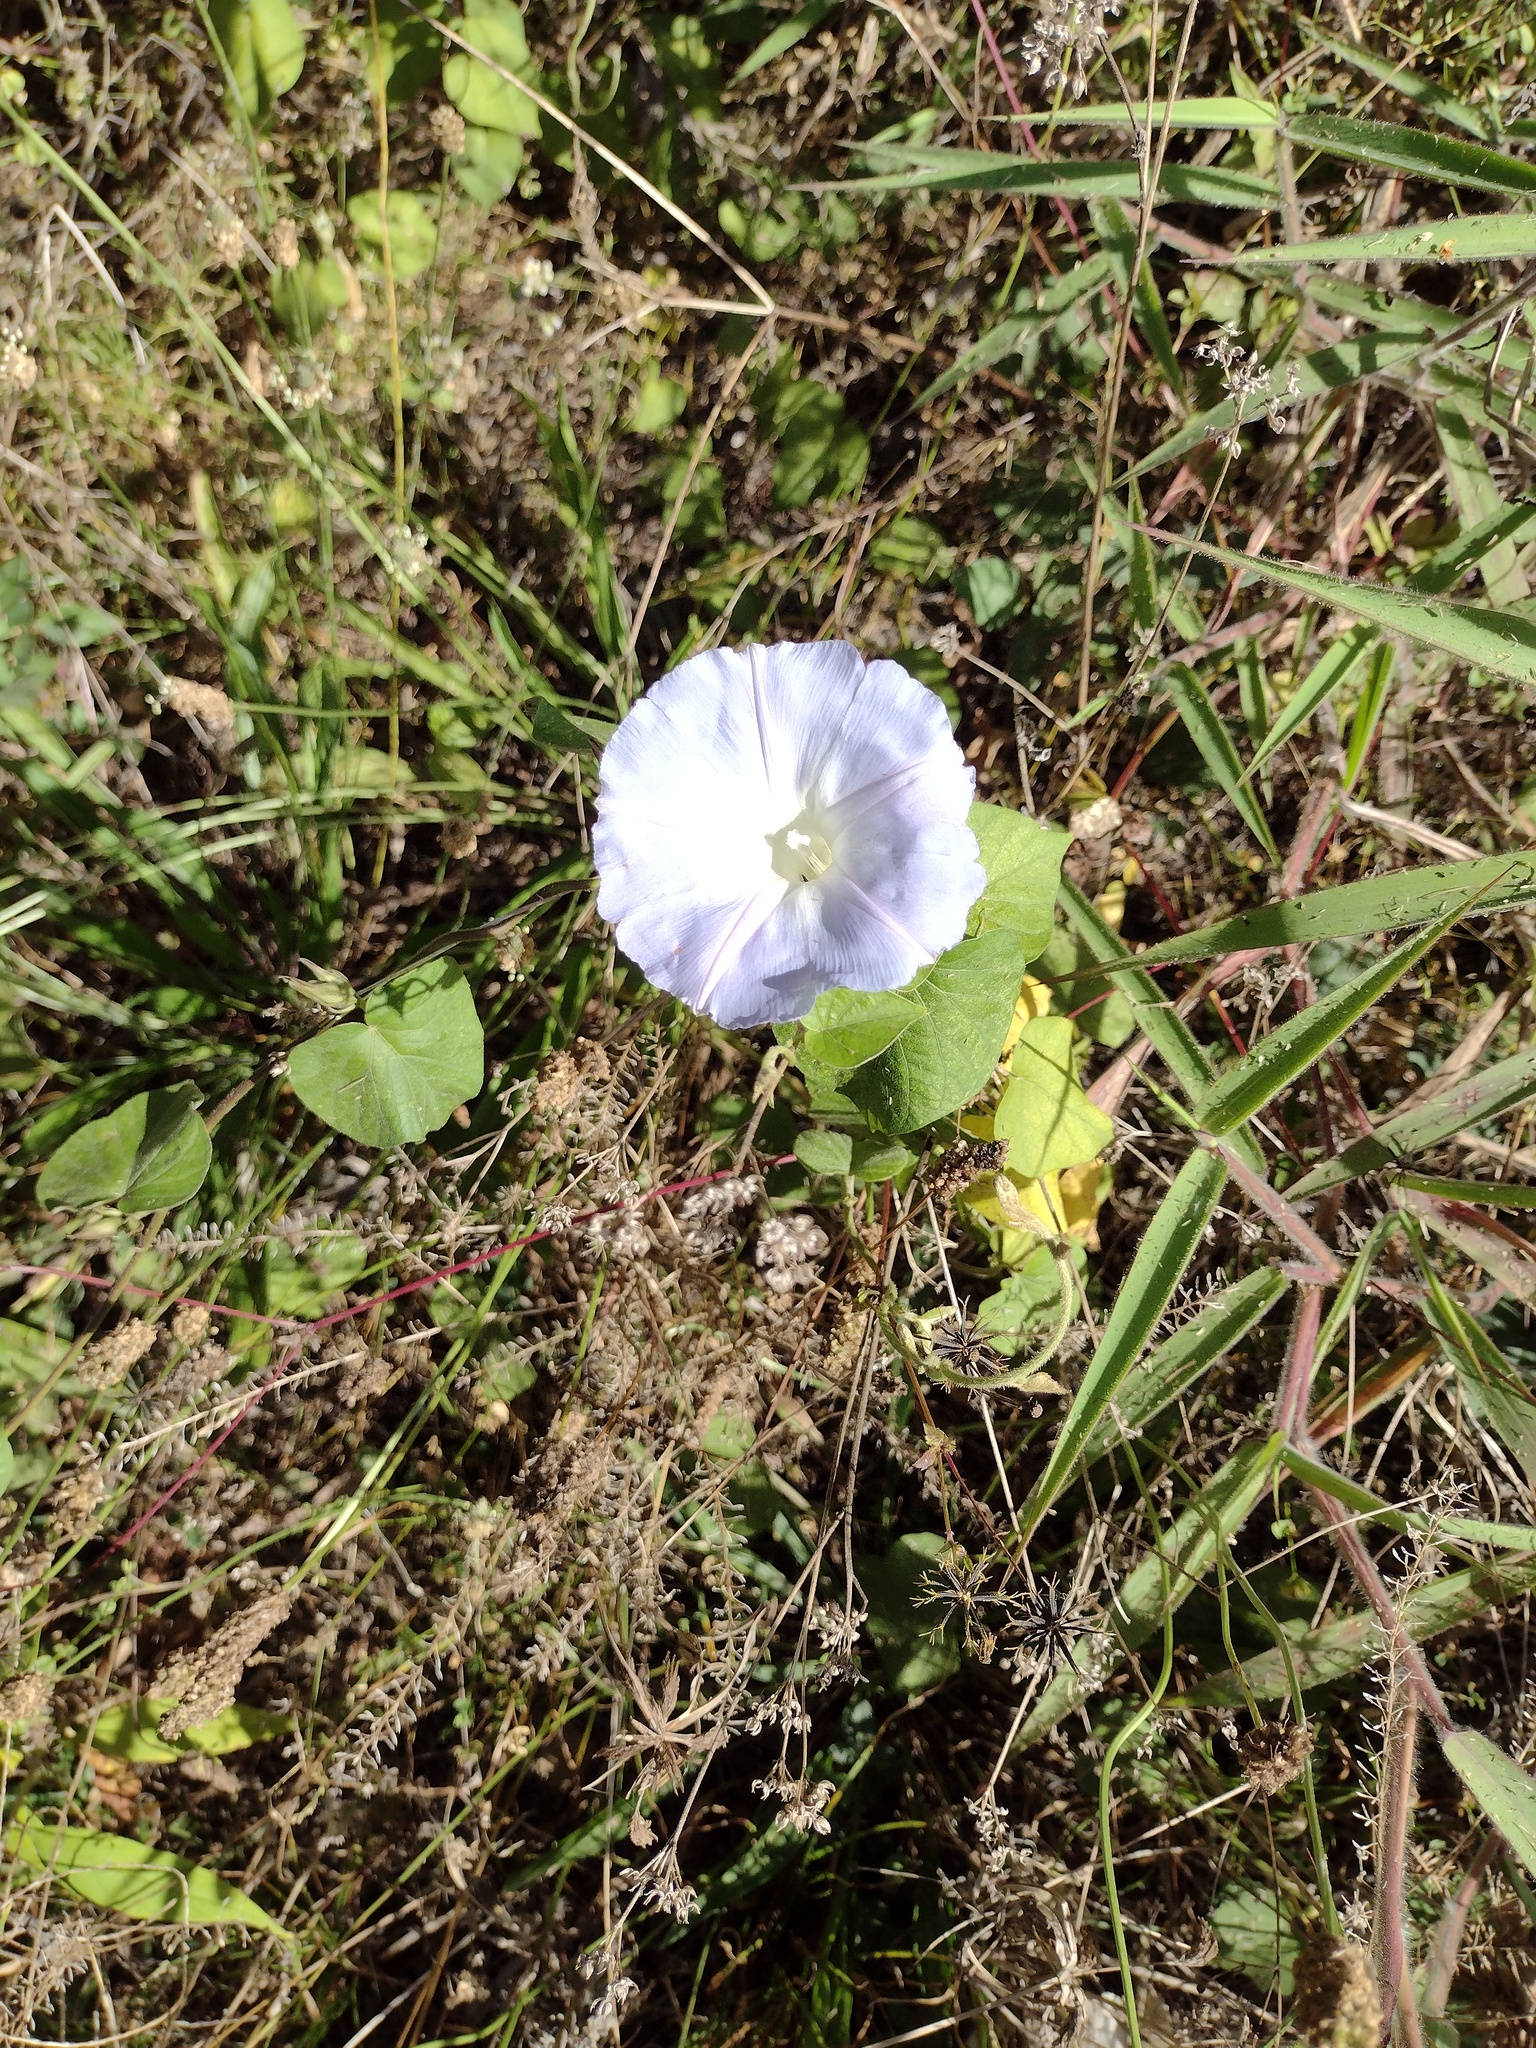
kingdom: Plantae
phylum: Tracheophyta
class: Magnoliopsida
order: Solanales
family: Convolvulaceae
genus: Ipomoea
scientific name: Ipomoea indica
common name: Blue dawnflower
